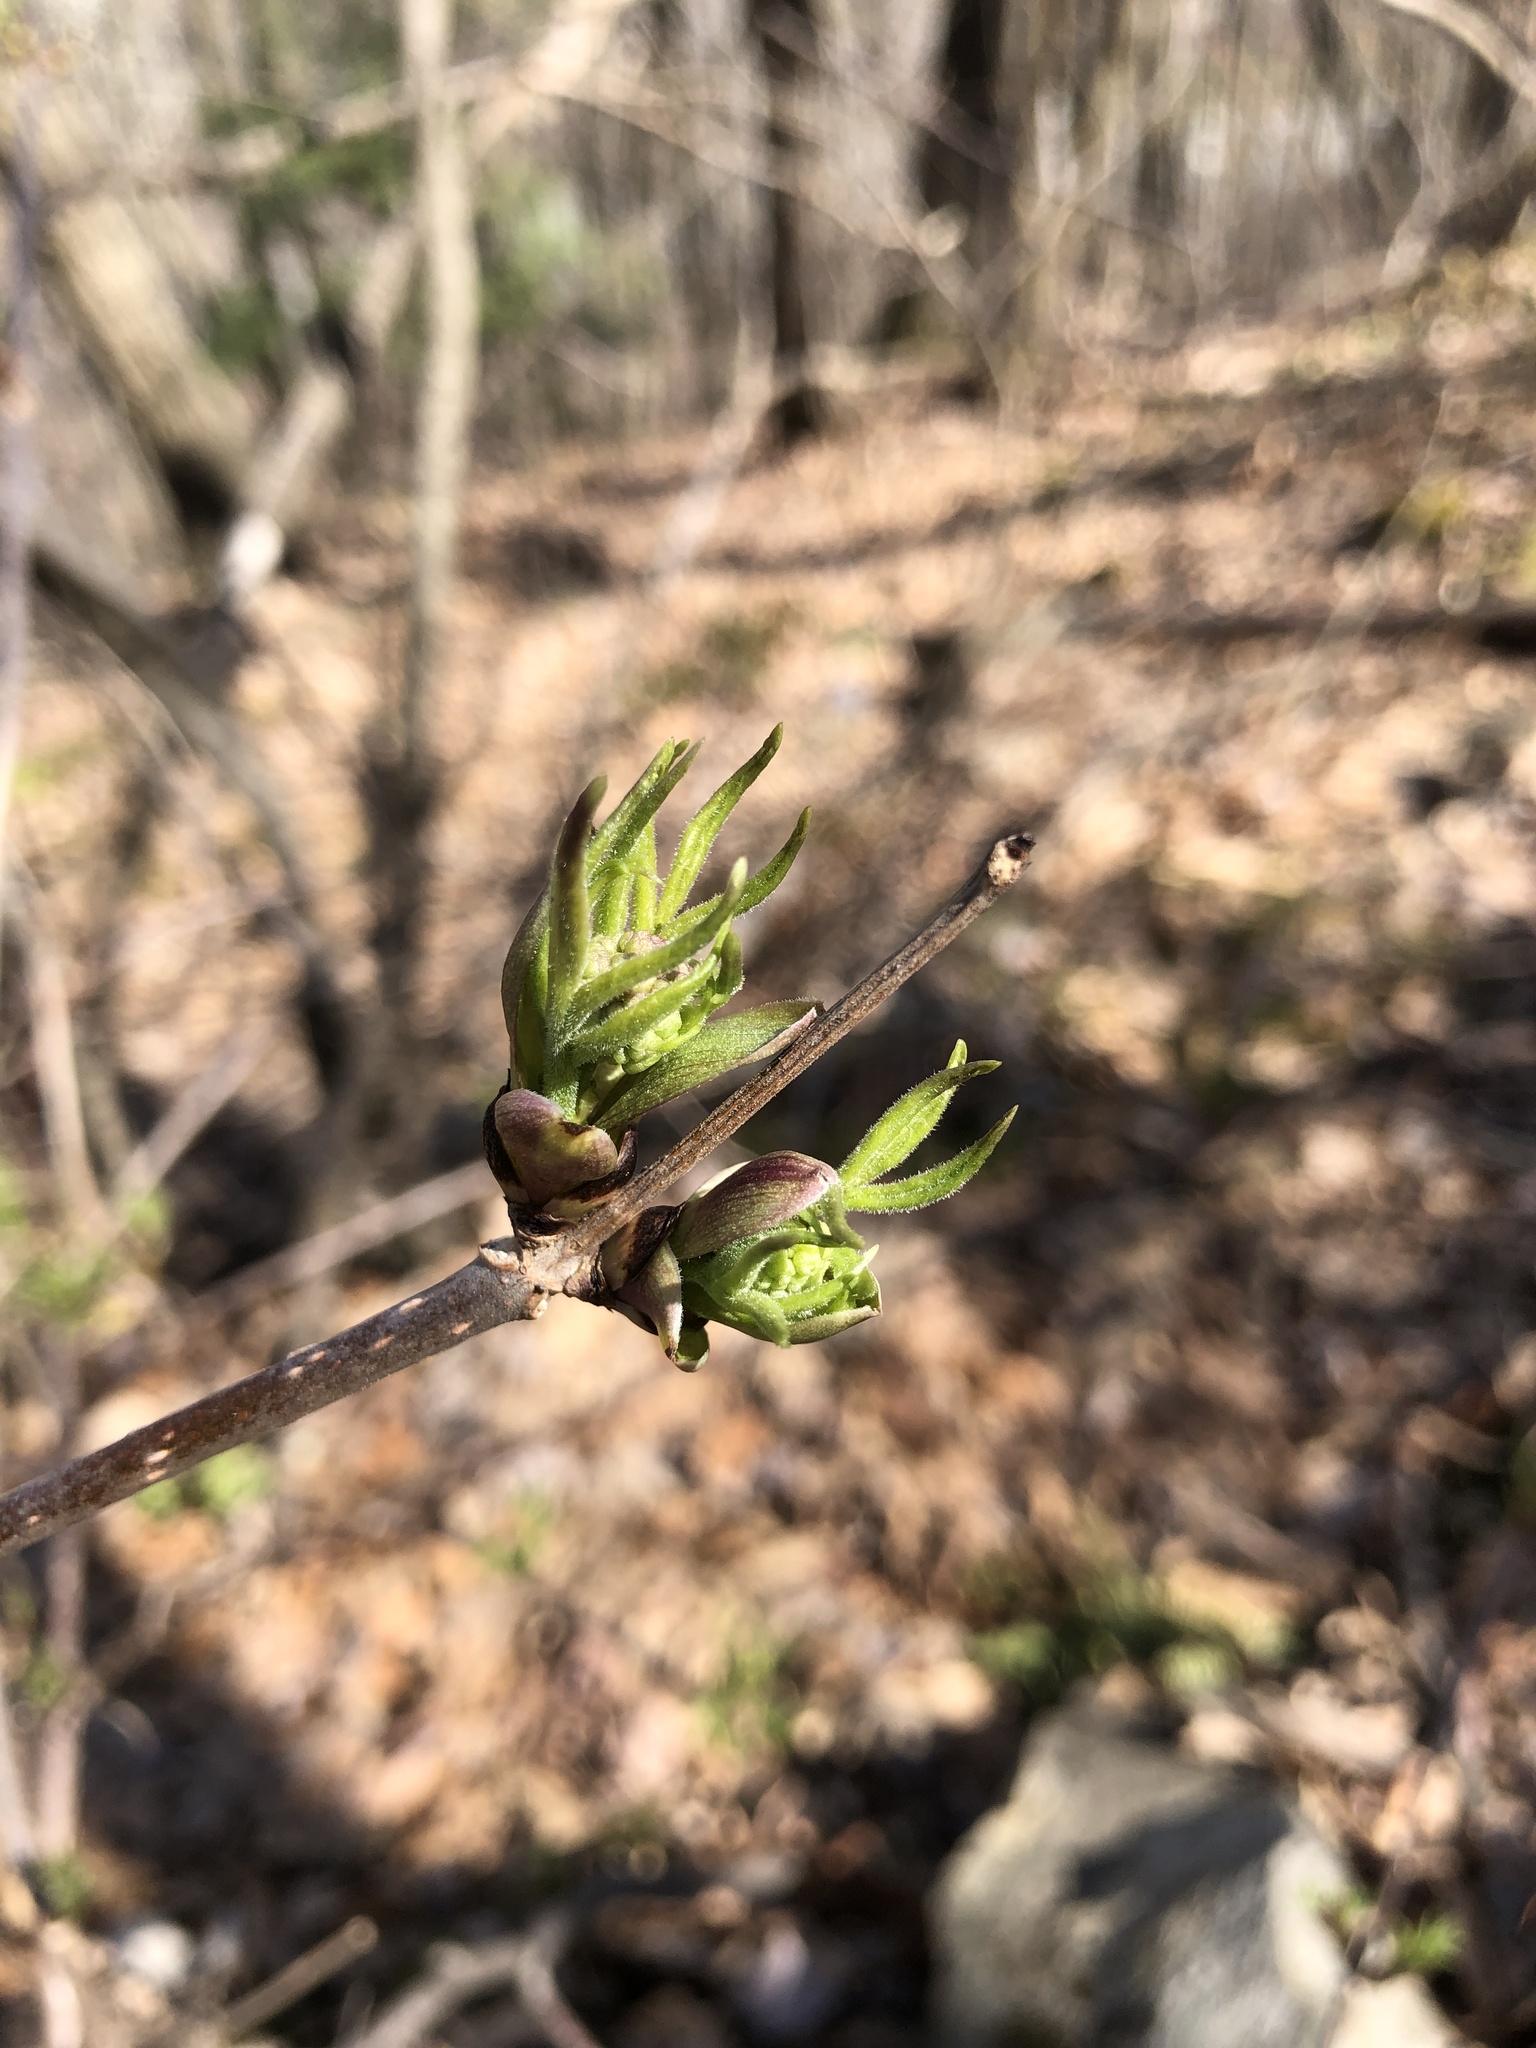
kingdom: Plantae
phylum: Tracheophyta
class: Magnoliopsida
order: Dipsacales
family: Viburnaceae
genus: Sambucus
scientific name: Sambucus racemosa
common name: Red-berried elder
